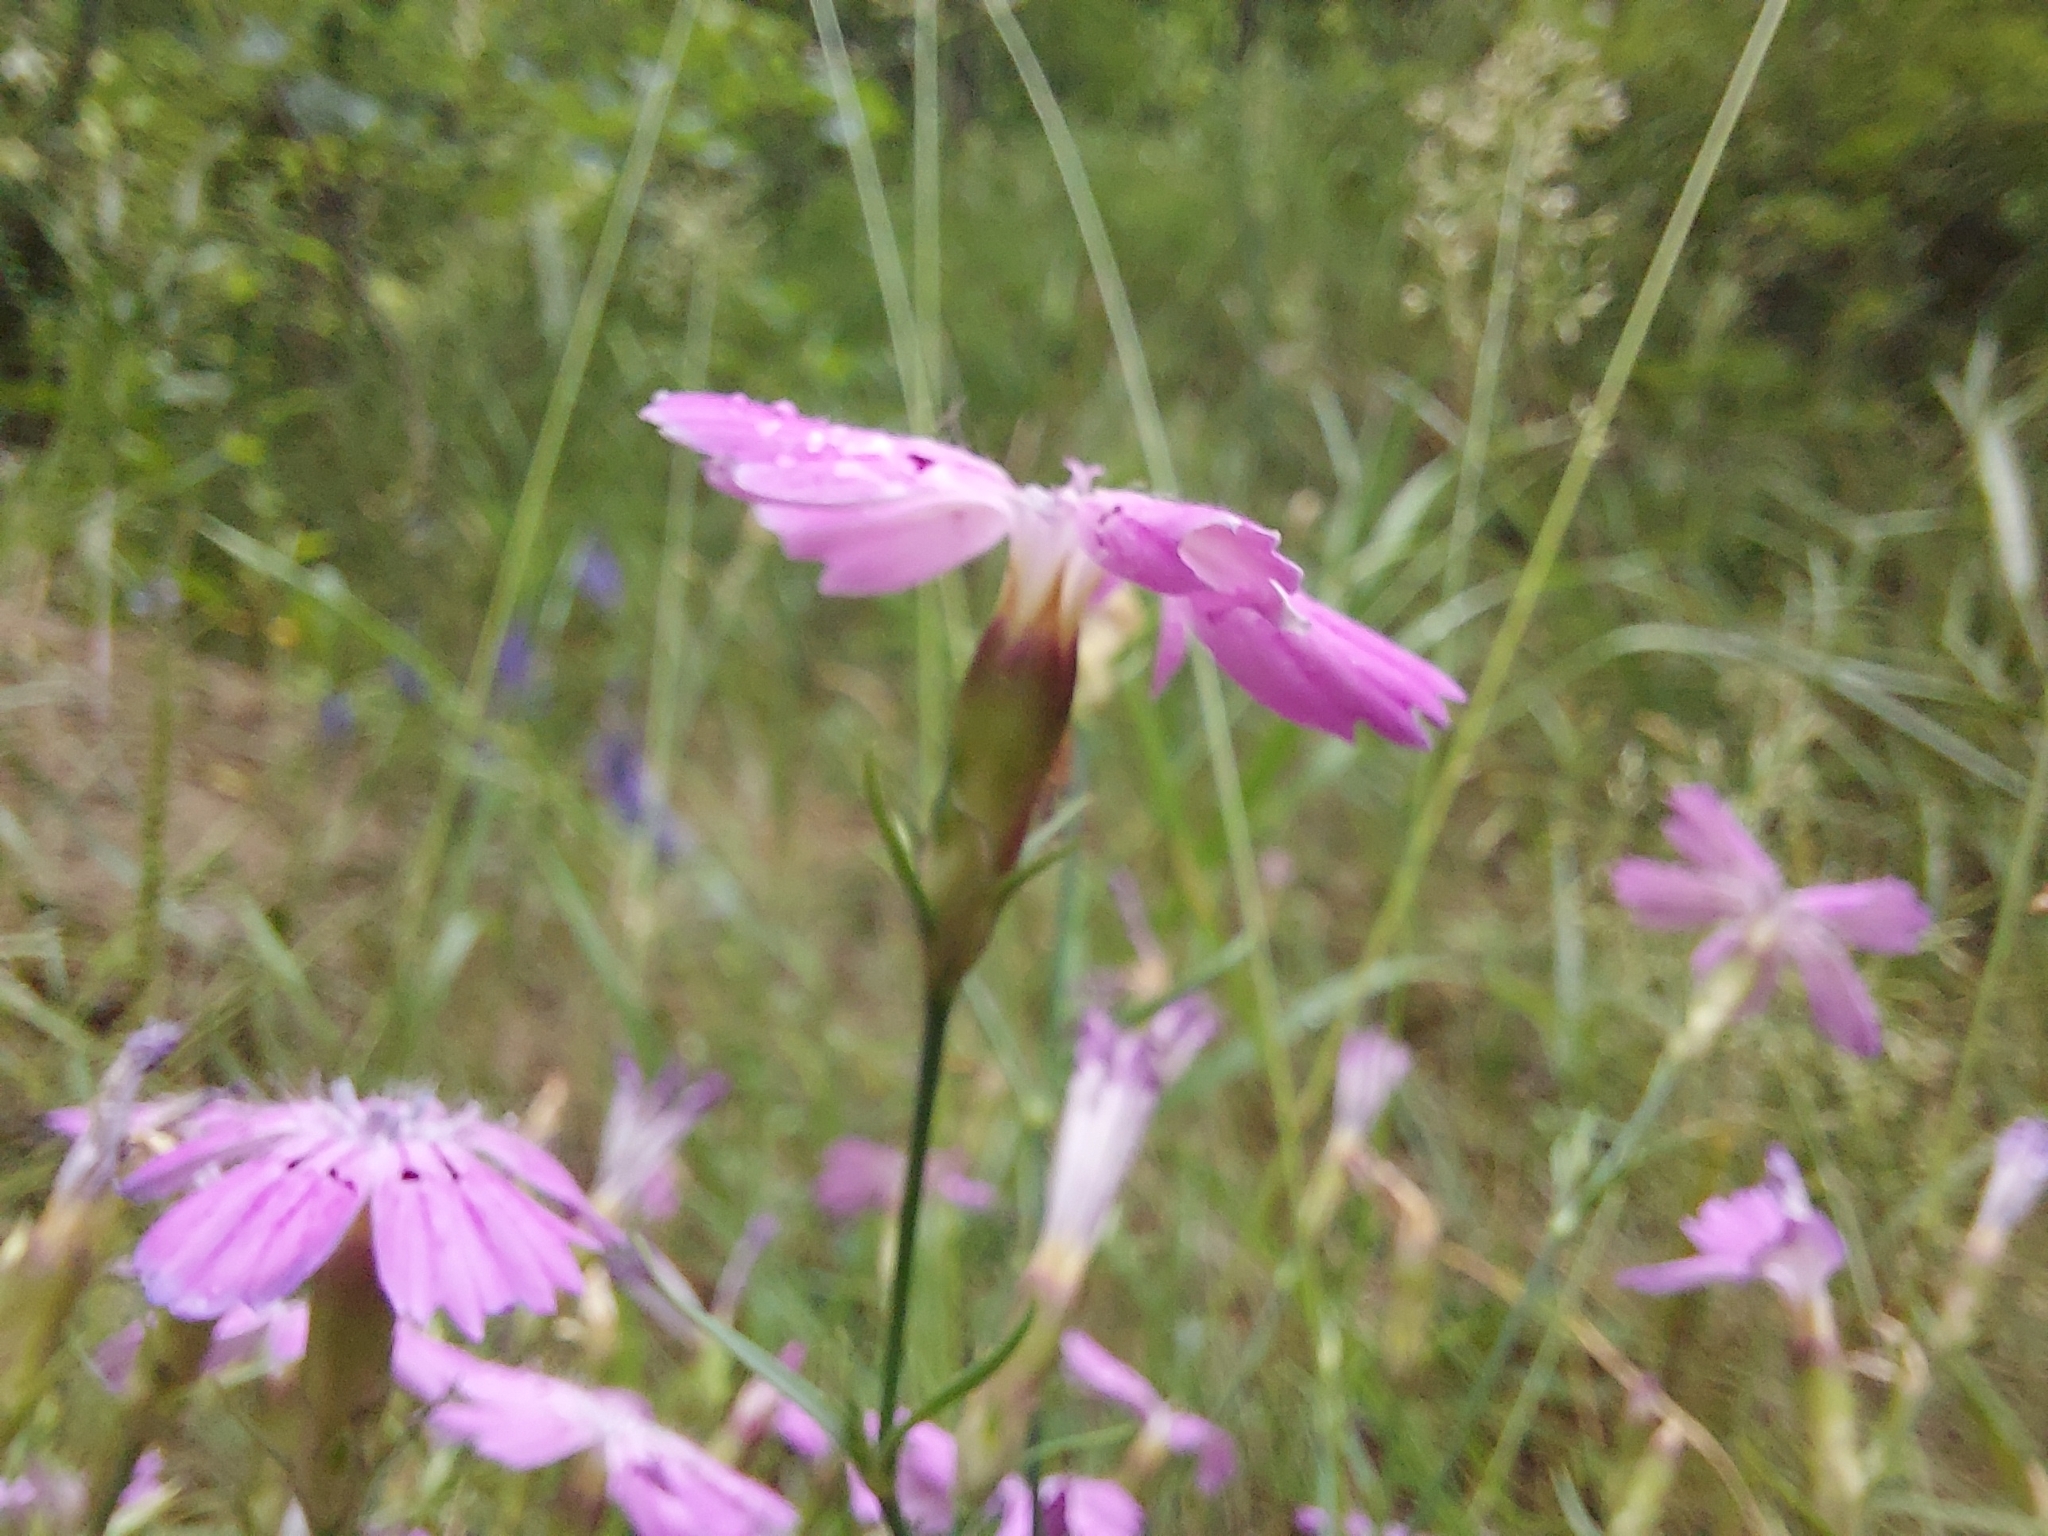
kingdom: Plantae
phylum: Tracheophyta
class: Magnoliopsida
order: Caryophyllales
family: Caryophyllaceae
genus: Dianthus
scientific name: Dianthus chinensis
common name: Rainbow pink
